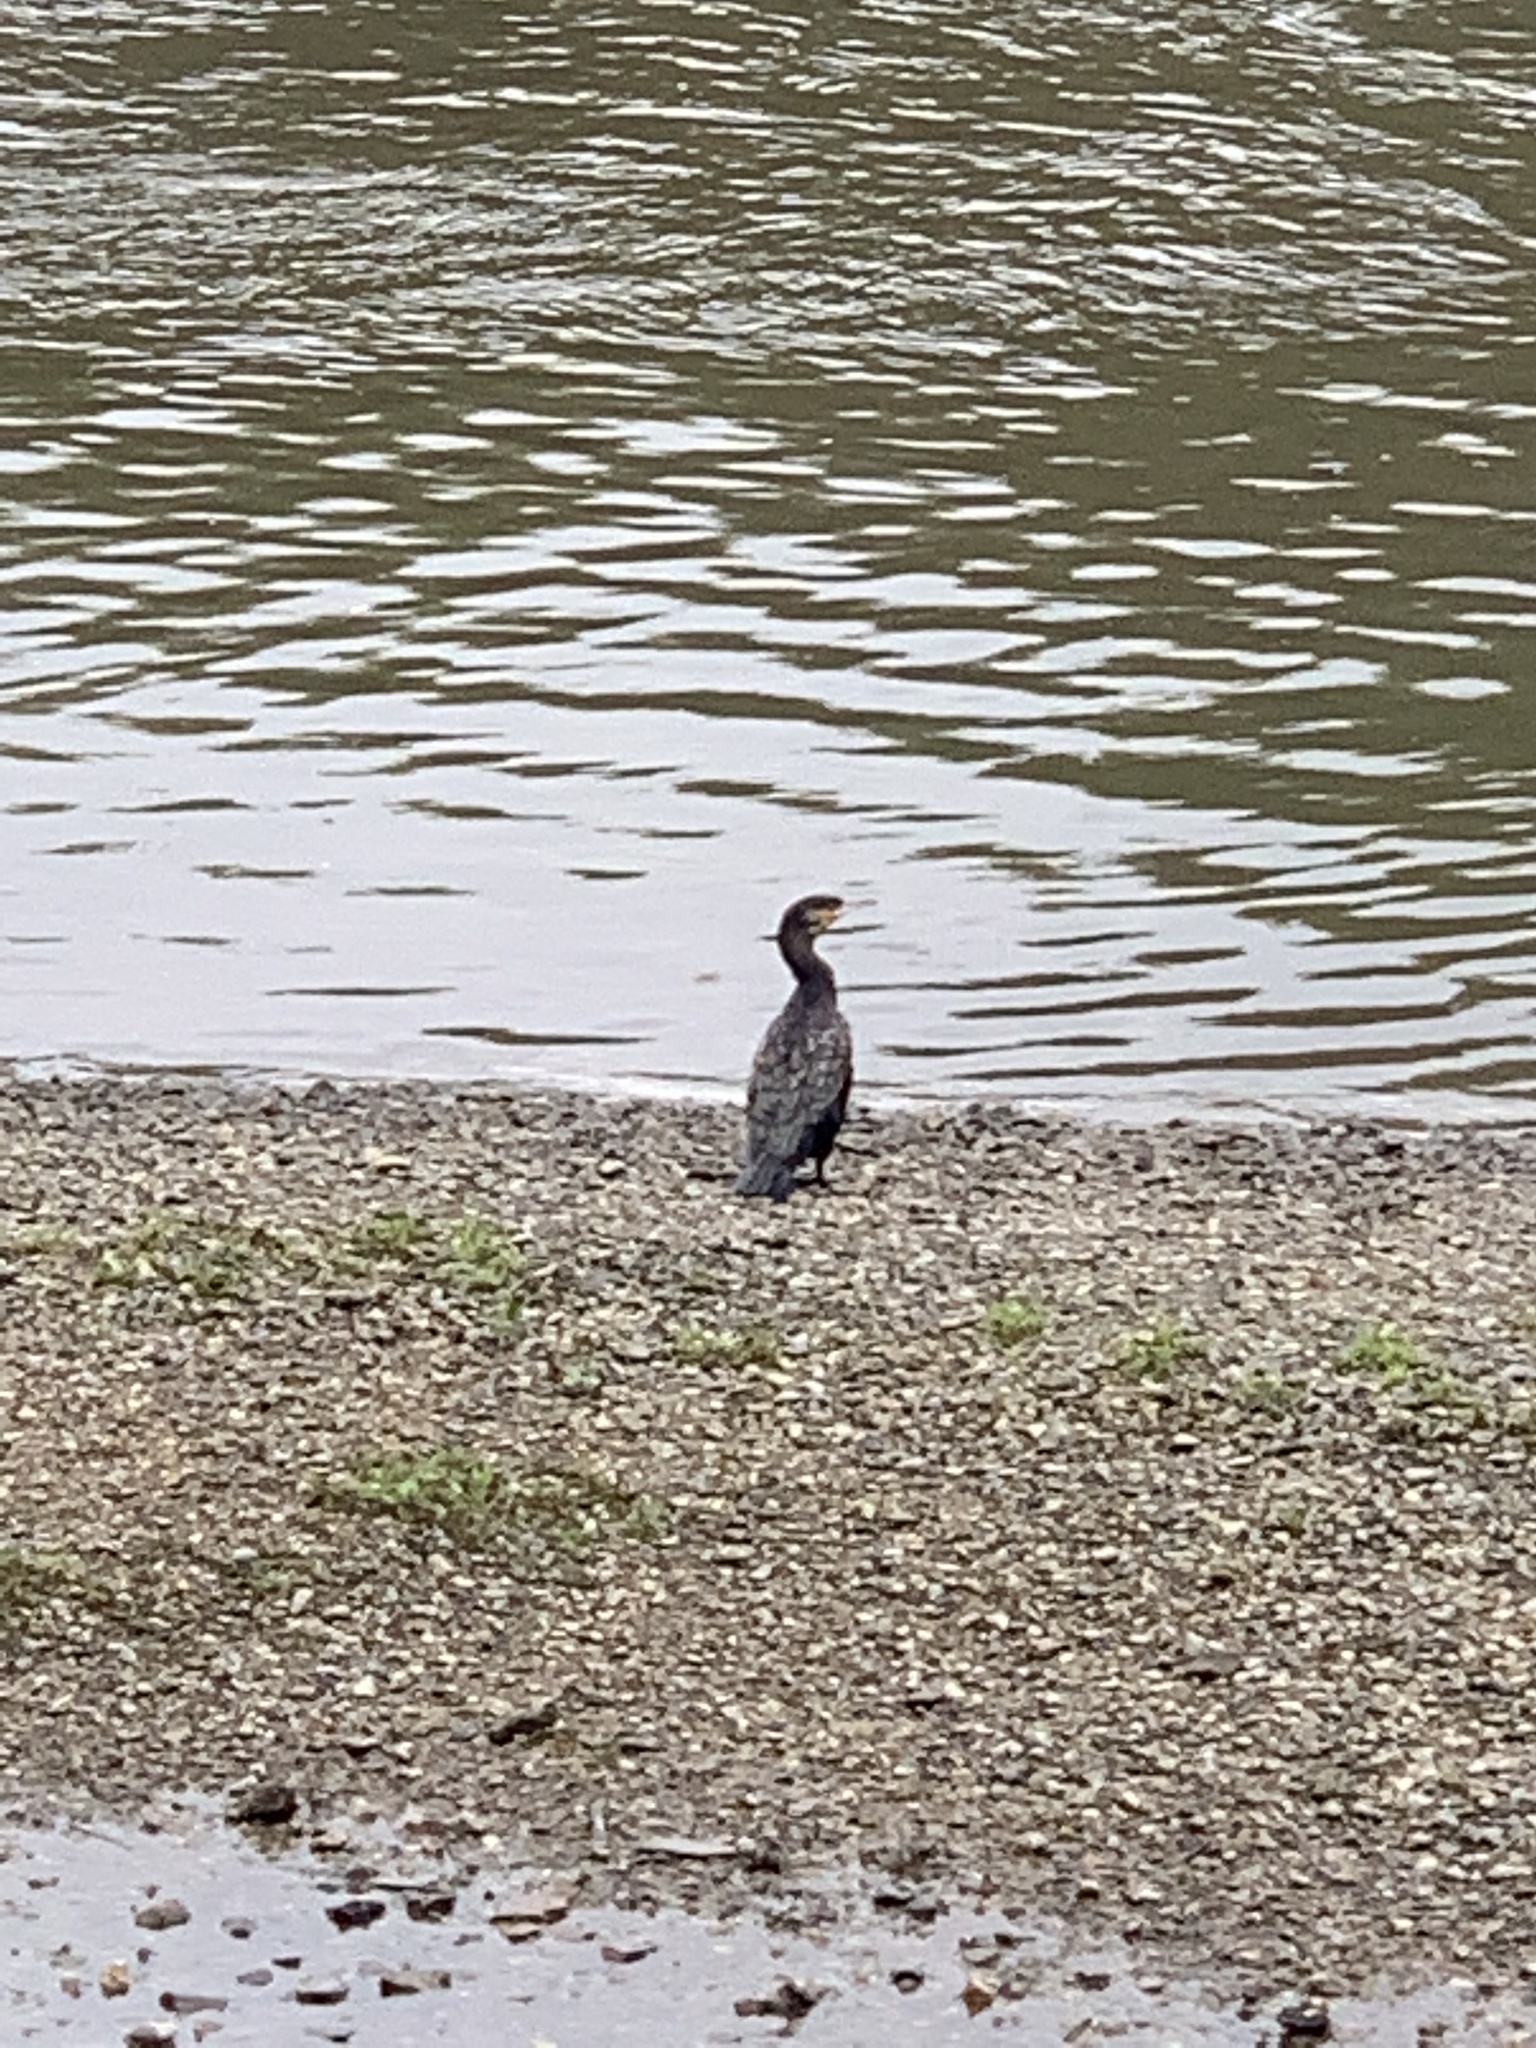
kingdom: Animalia
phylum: Chordata
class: Aves
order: Suliformes
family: Phalacrocoracidae
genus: Phalacrocorax
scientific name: Phalacrocorax carbo
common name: Great cormorant
